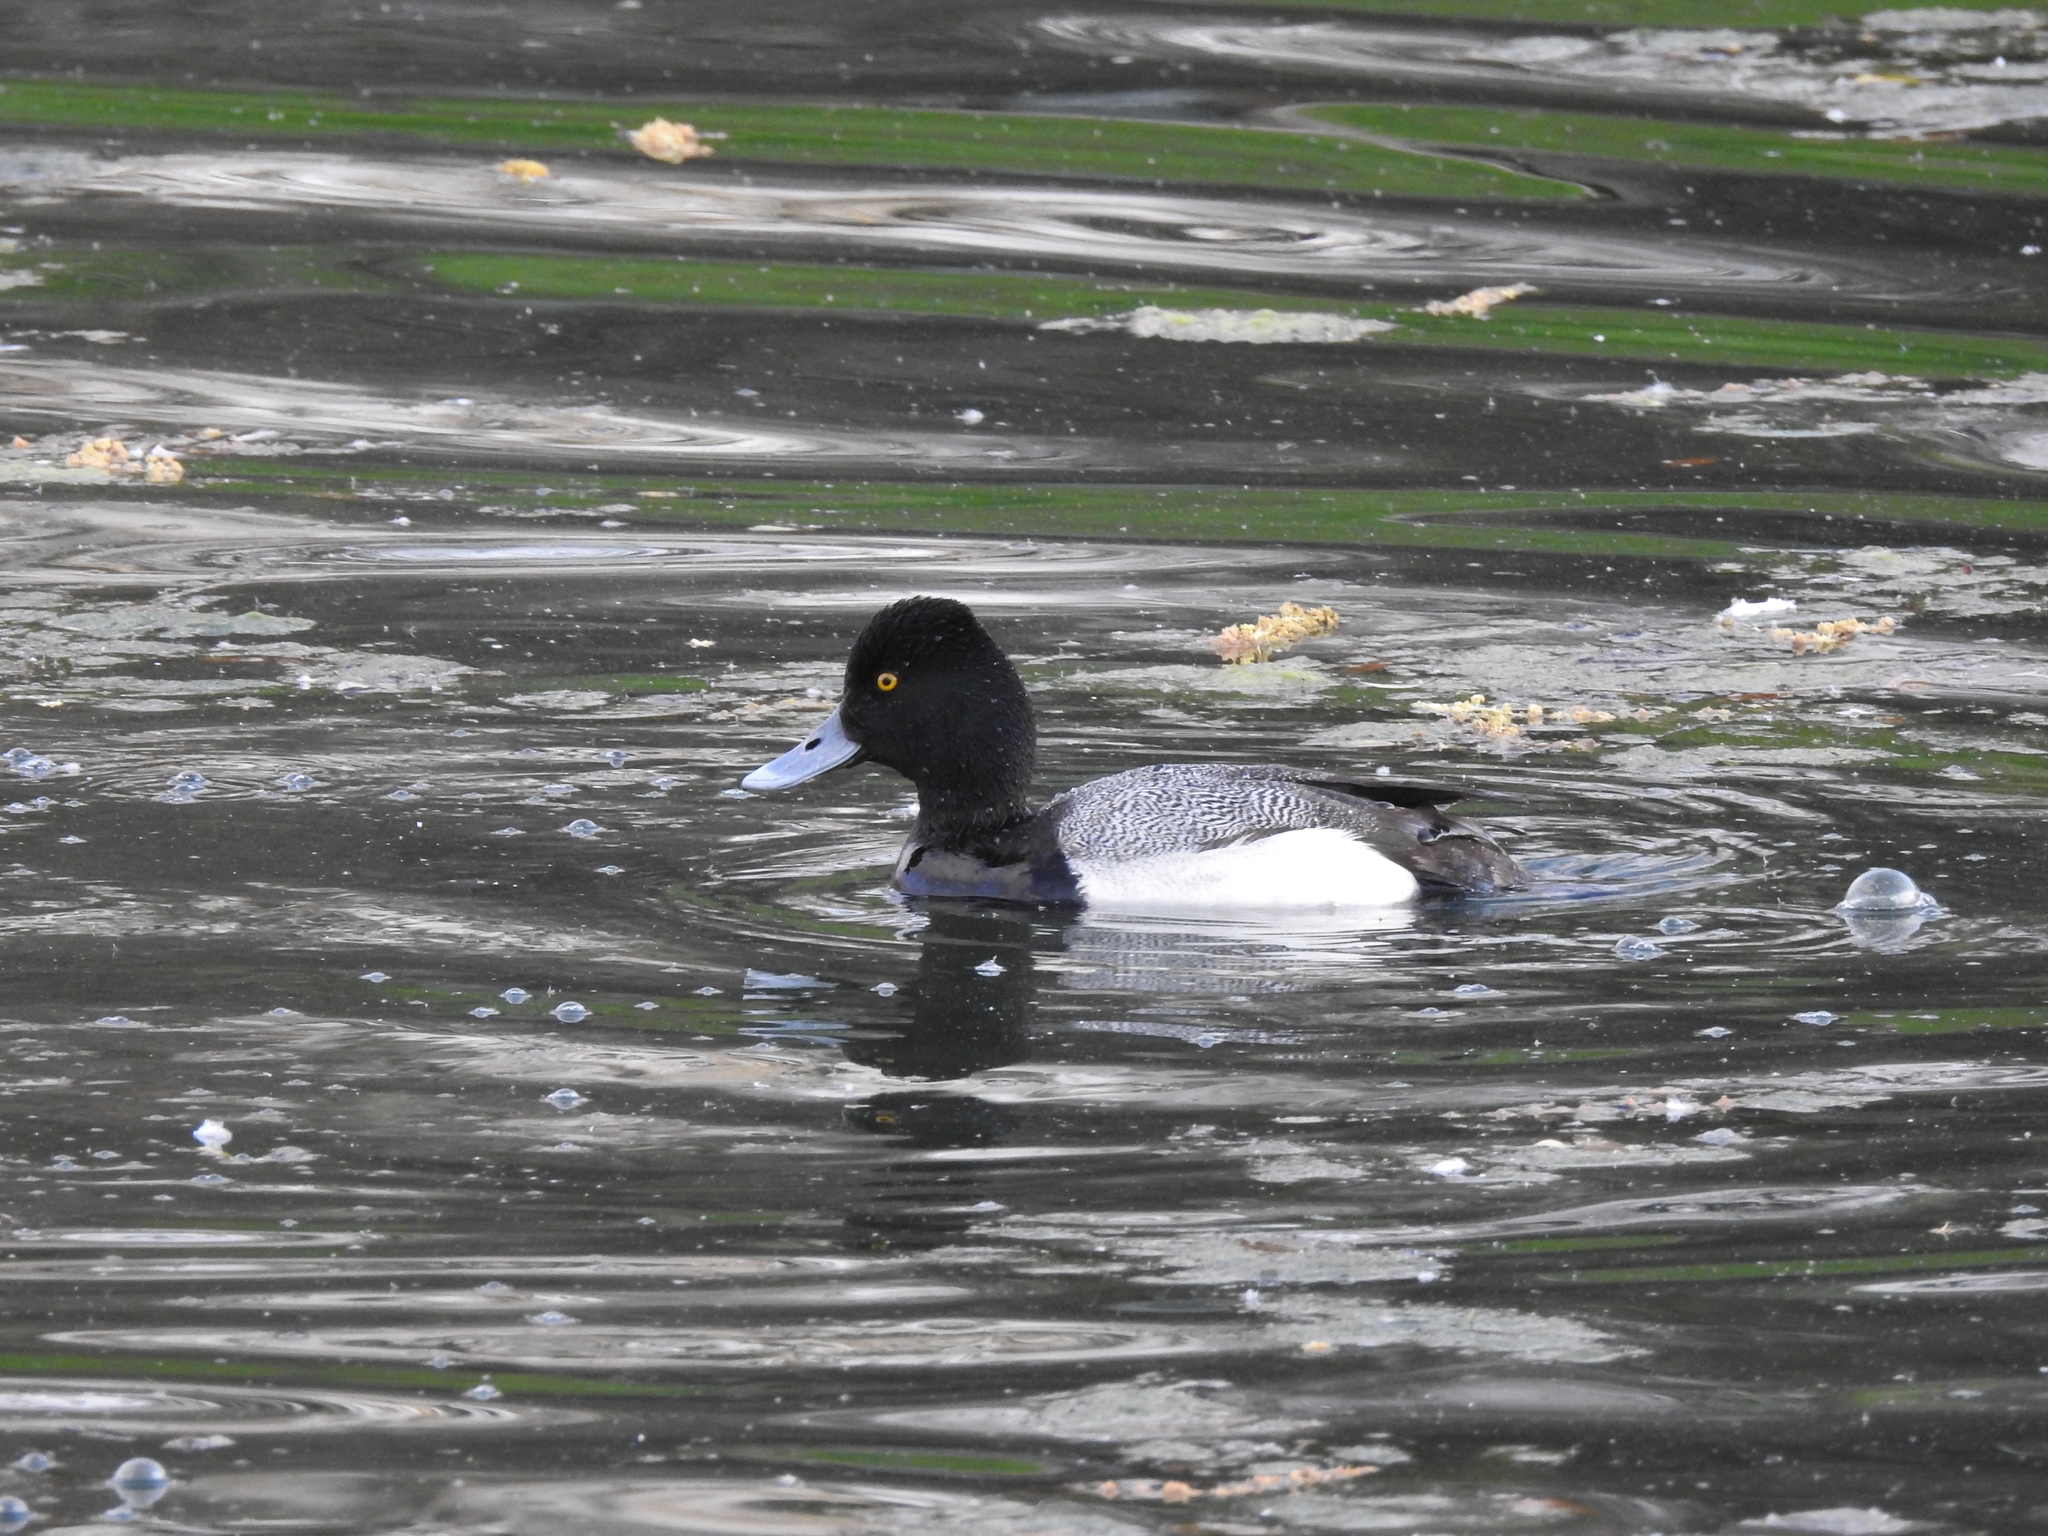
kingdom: Animalia
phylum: Chordata
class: Aves
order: Anseriformes
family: Anatidae
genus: Aythya
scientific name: Aythya affinis
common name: Lesser scaup
